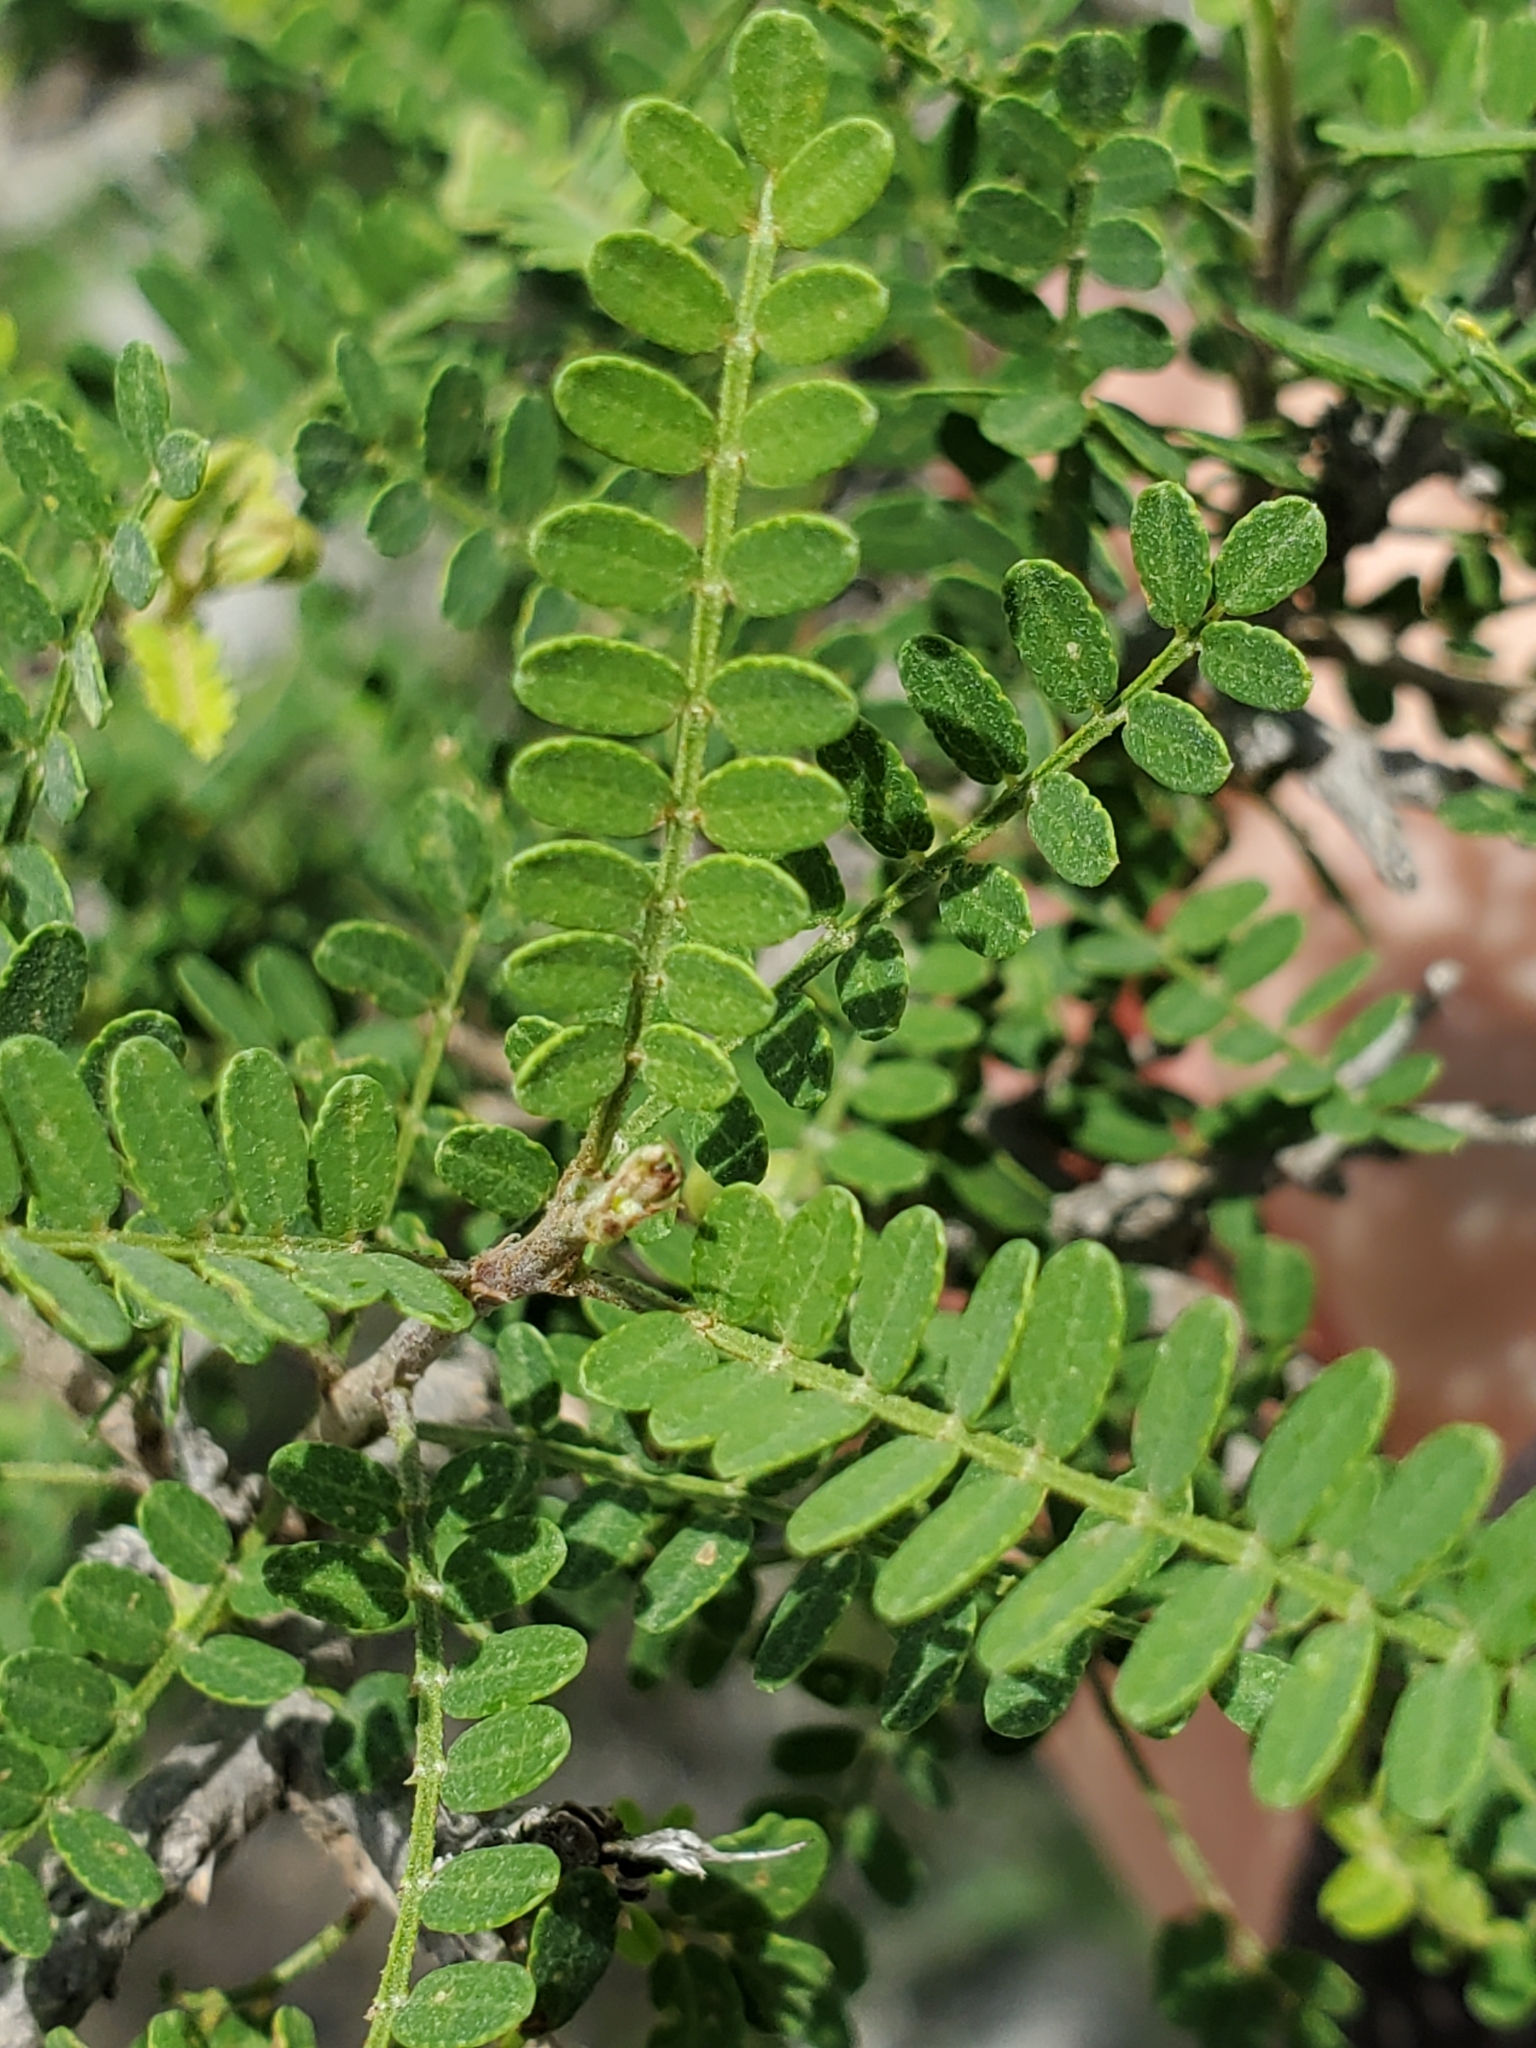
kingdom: Plantae
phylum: Tracheophyta
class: Magnoliopsida
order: Fabales
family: Fabaceae
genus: Eysenhardtia
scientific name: Eysenhardtia texana
